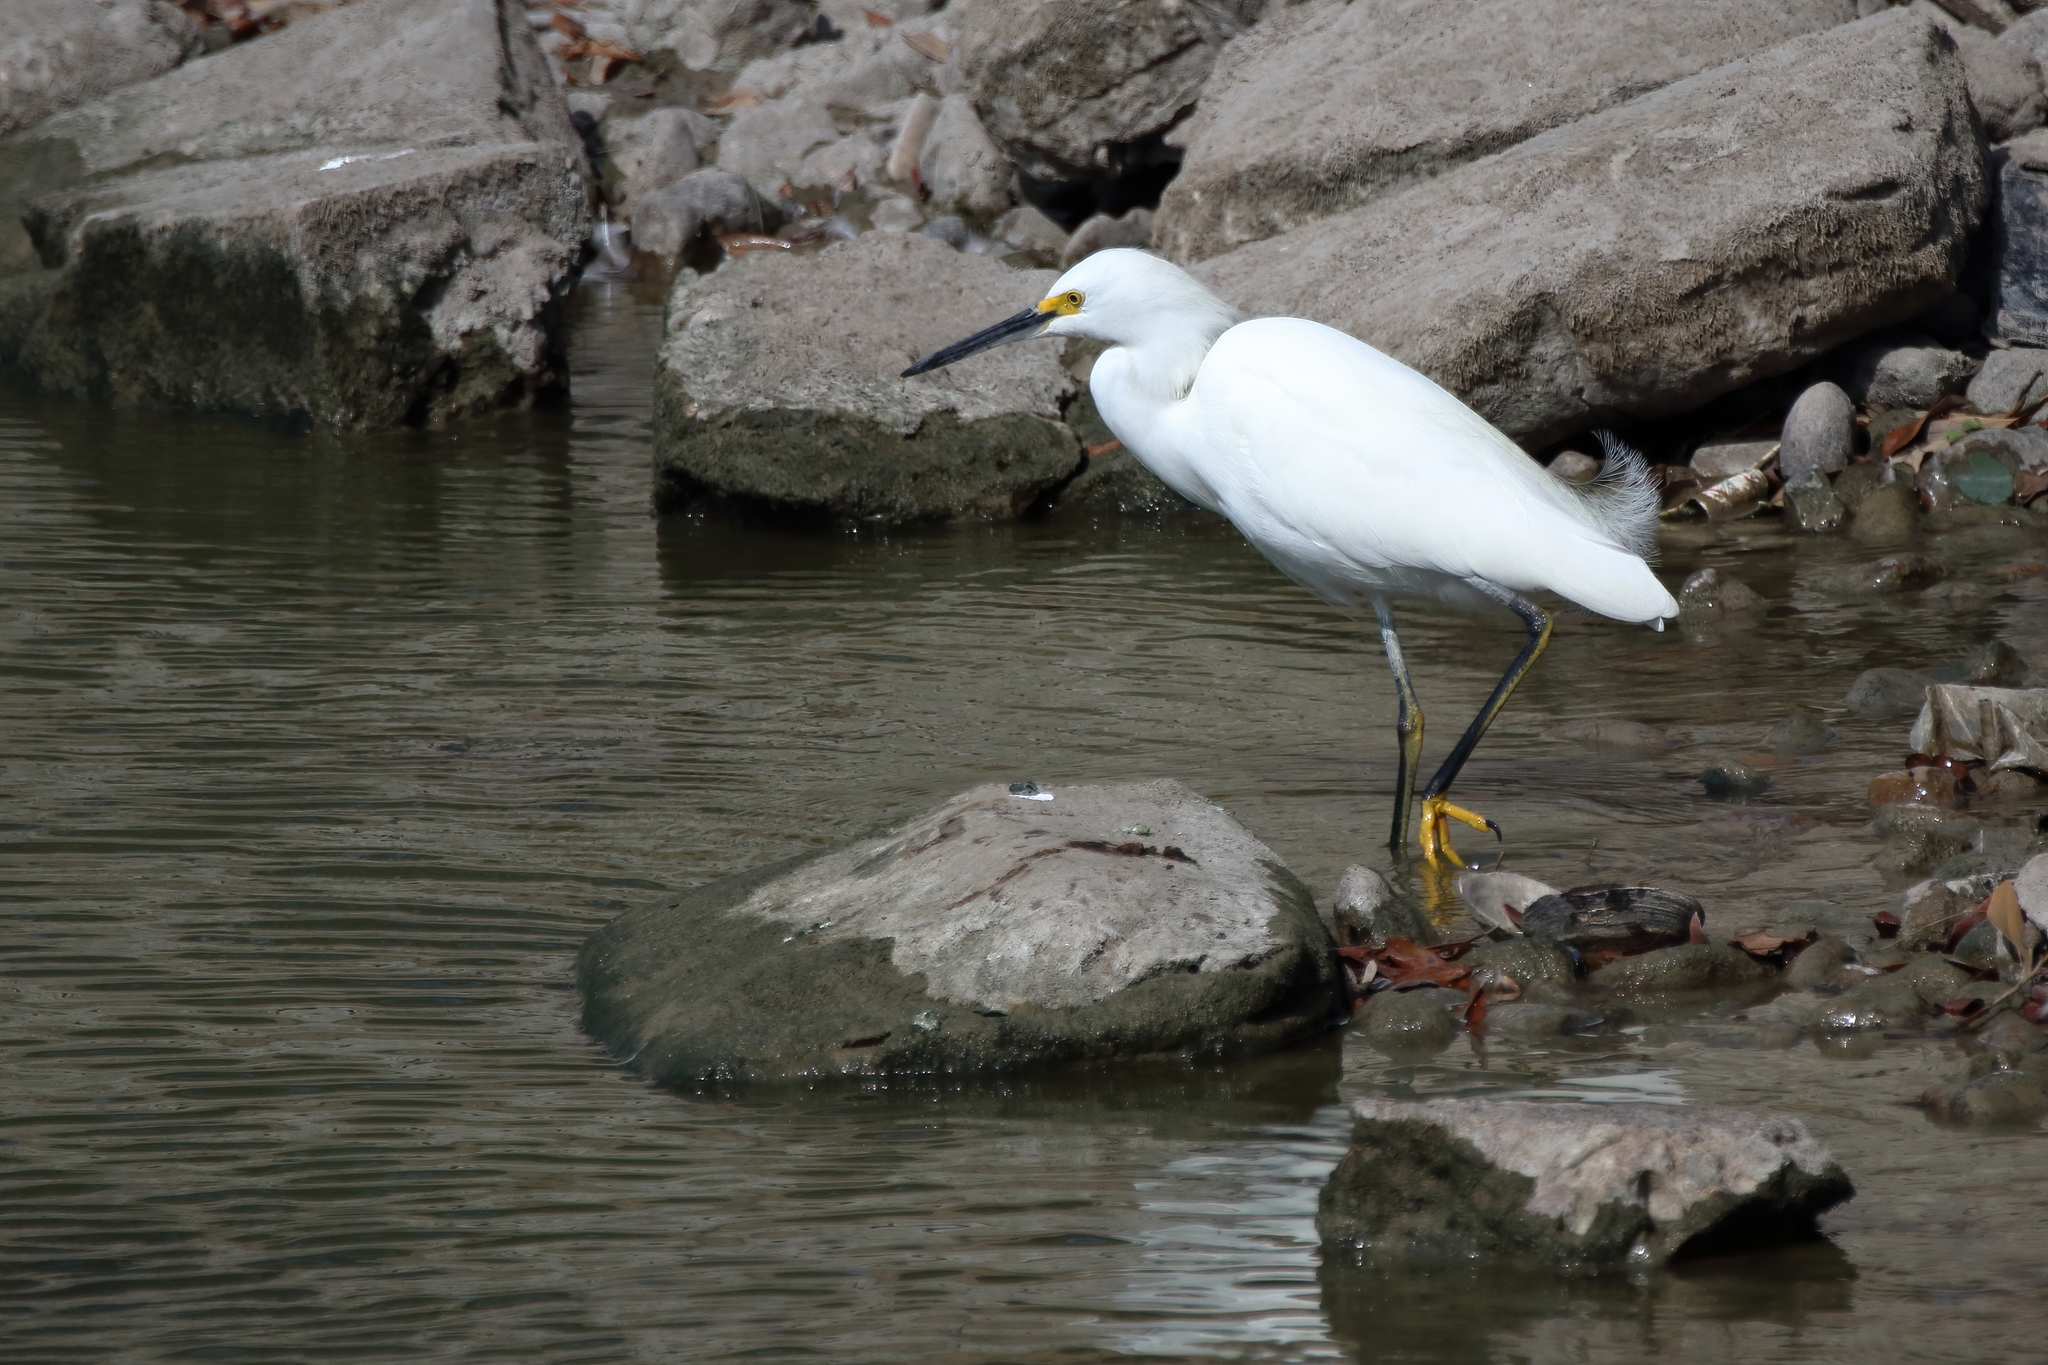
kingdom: Animalia
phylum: Chordata
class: Aves
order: Pelecaniformes
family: Ardeidae
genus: Egretta
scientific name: Egretta thula
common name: Snowy egret
